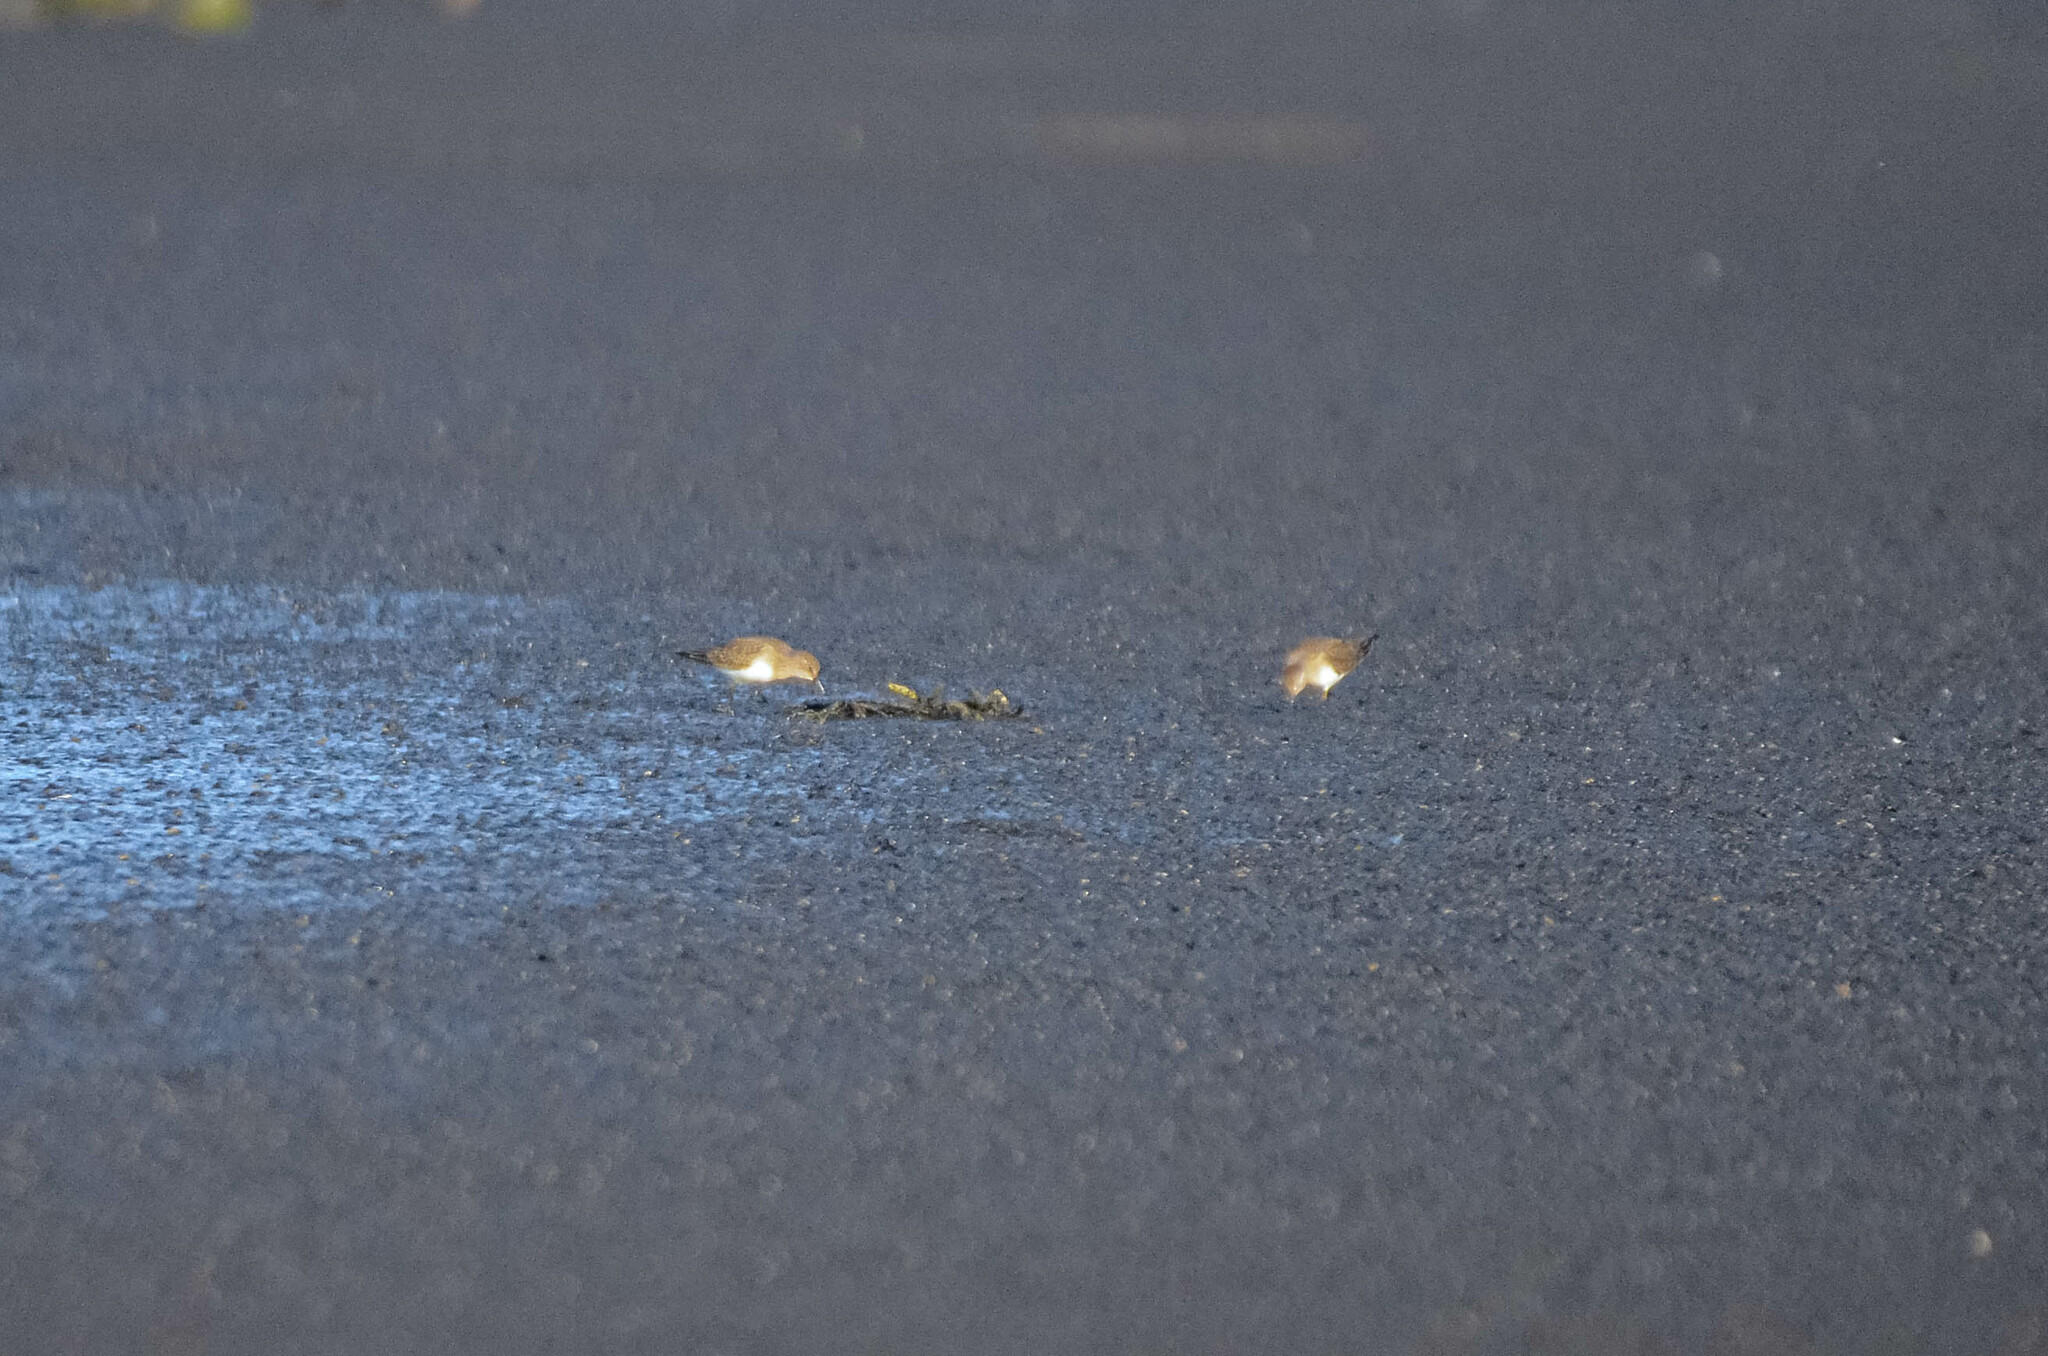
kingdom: Animalia
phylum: Chordata
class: Aves
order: Charadriiformes
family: Scolopacidae
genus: Calidris
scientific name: Calidris temminckii
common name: Temminck's stint
